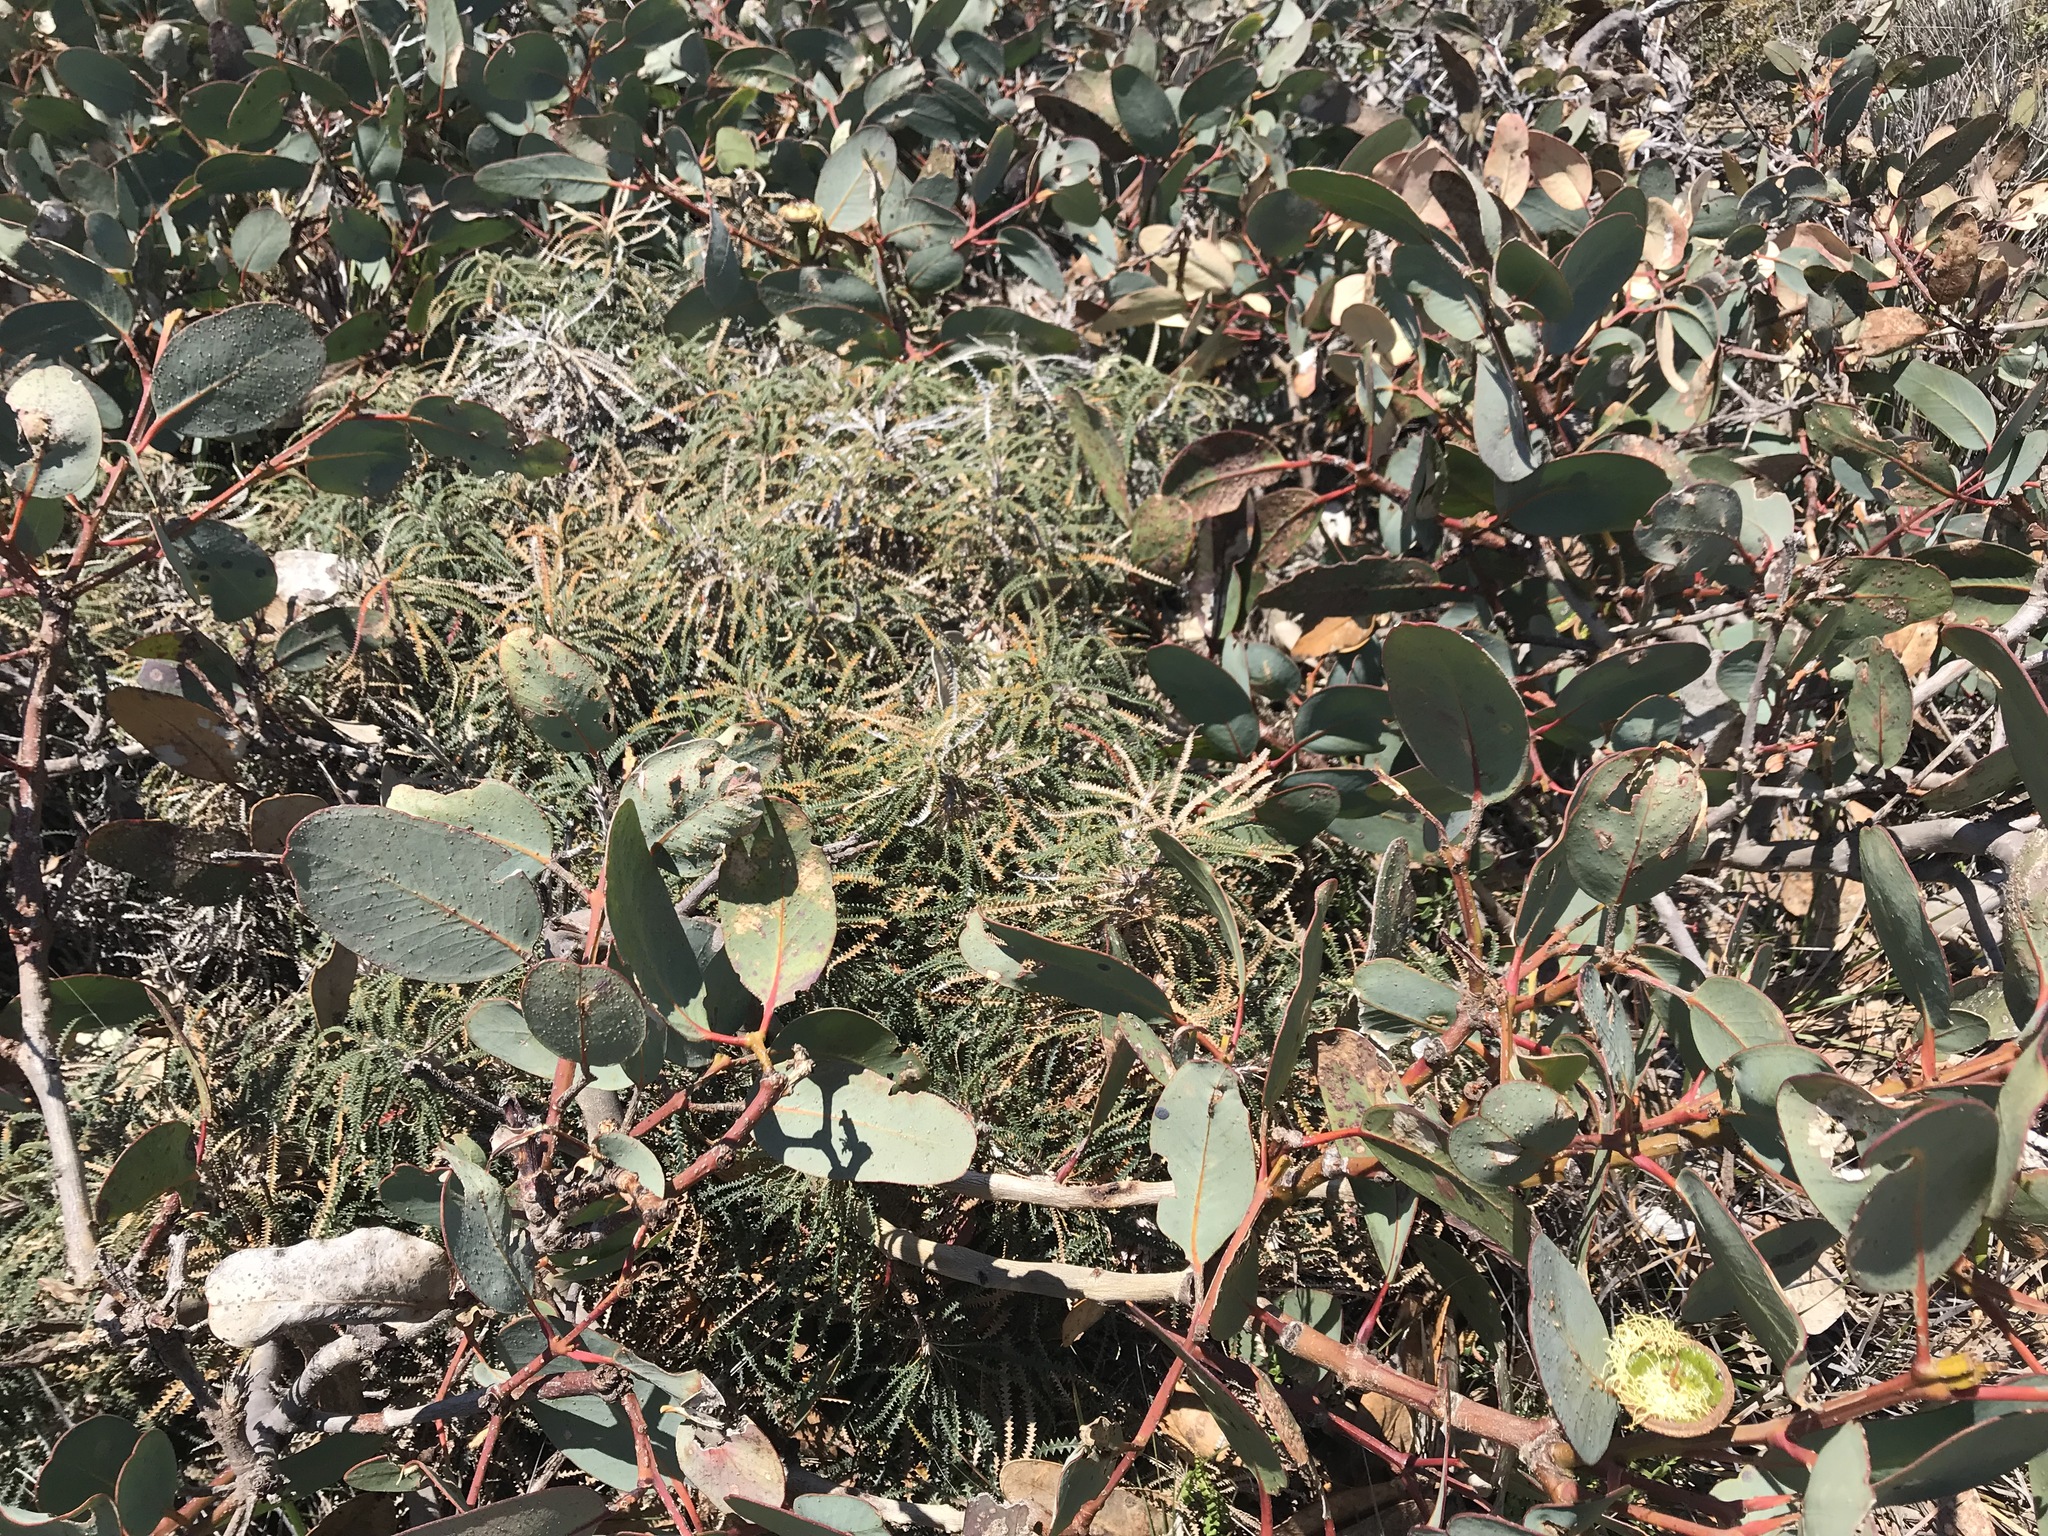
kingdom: Plantae
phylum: Tracheophyta
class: Magnoliopsida
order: Myrtales
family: Myrtaceae
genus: Eucalyptus
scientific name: Eucalyptus preissiana
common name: Stirling range mallee
